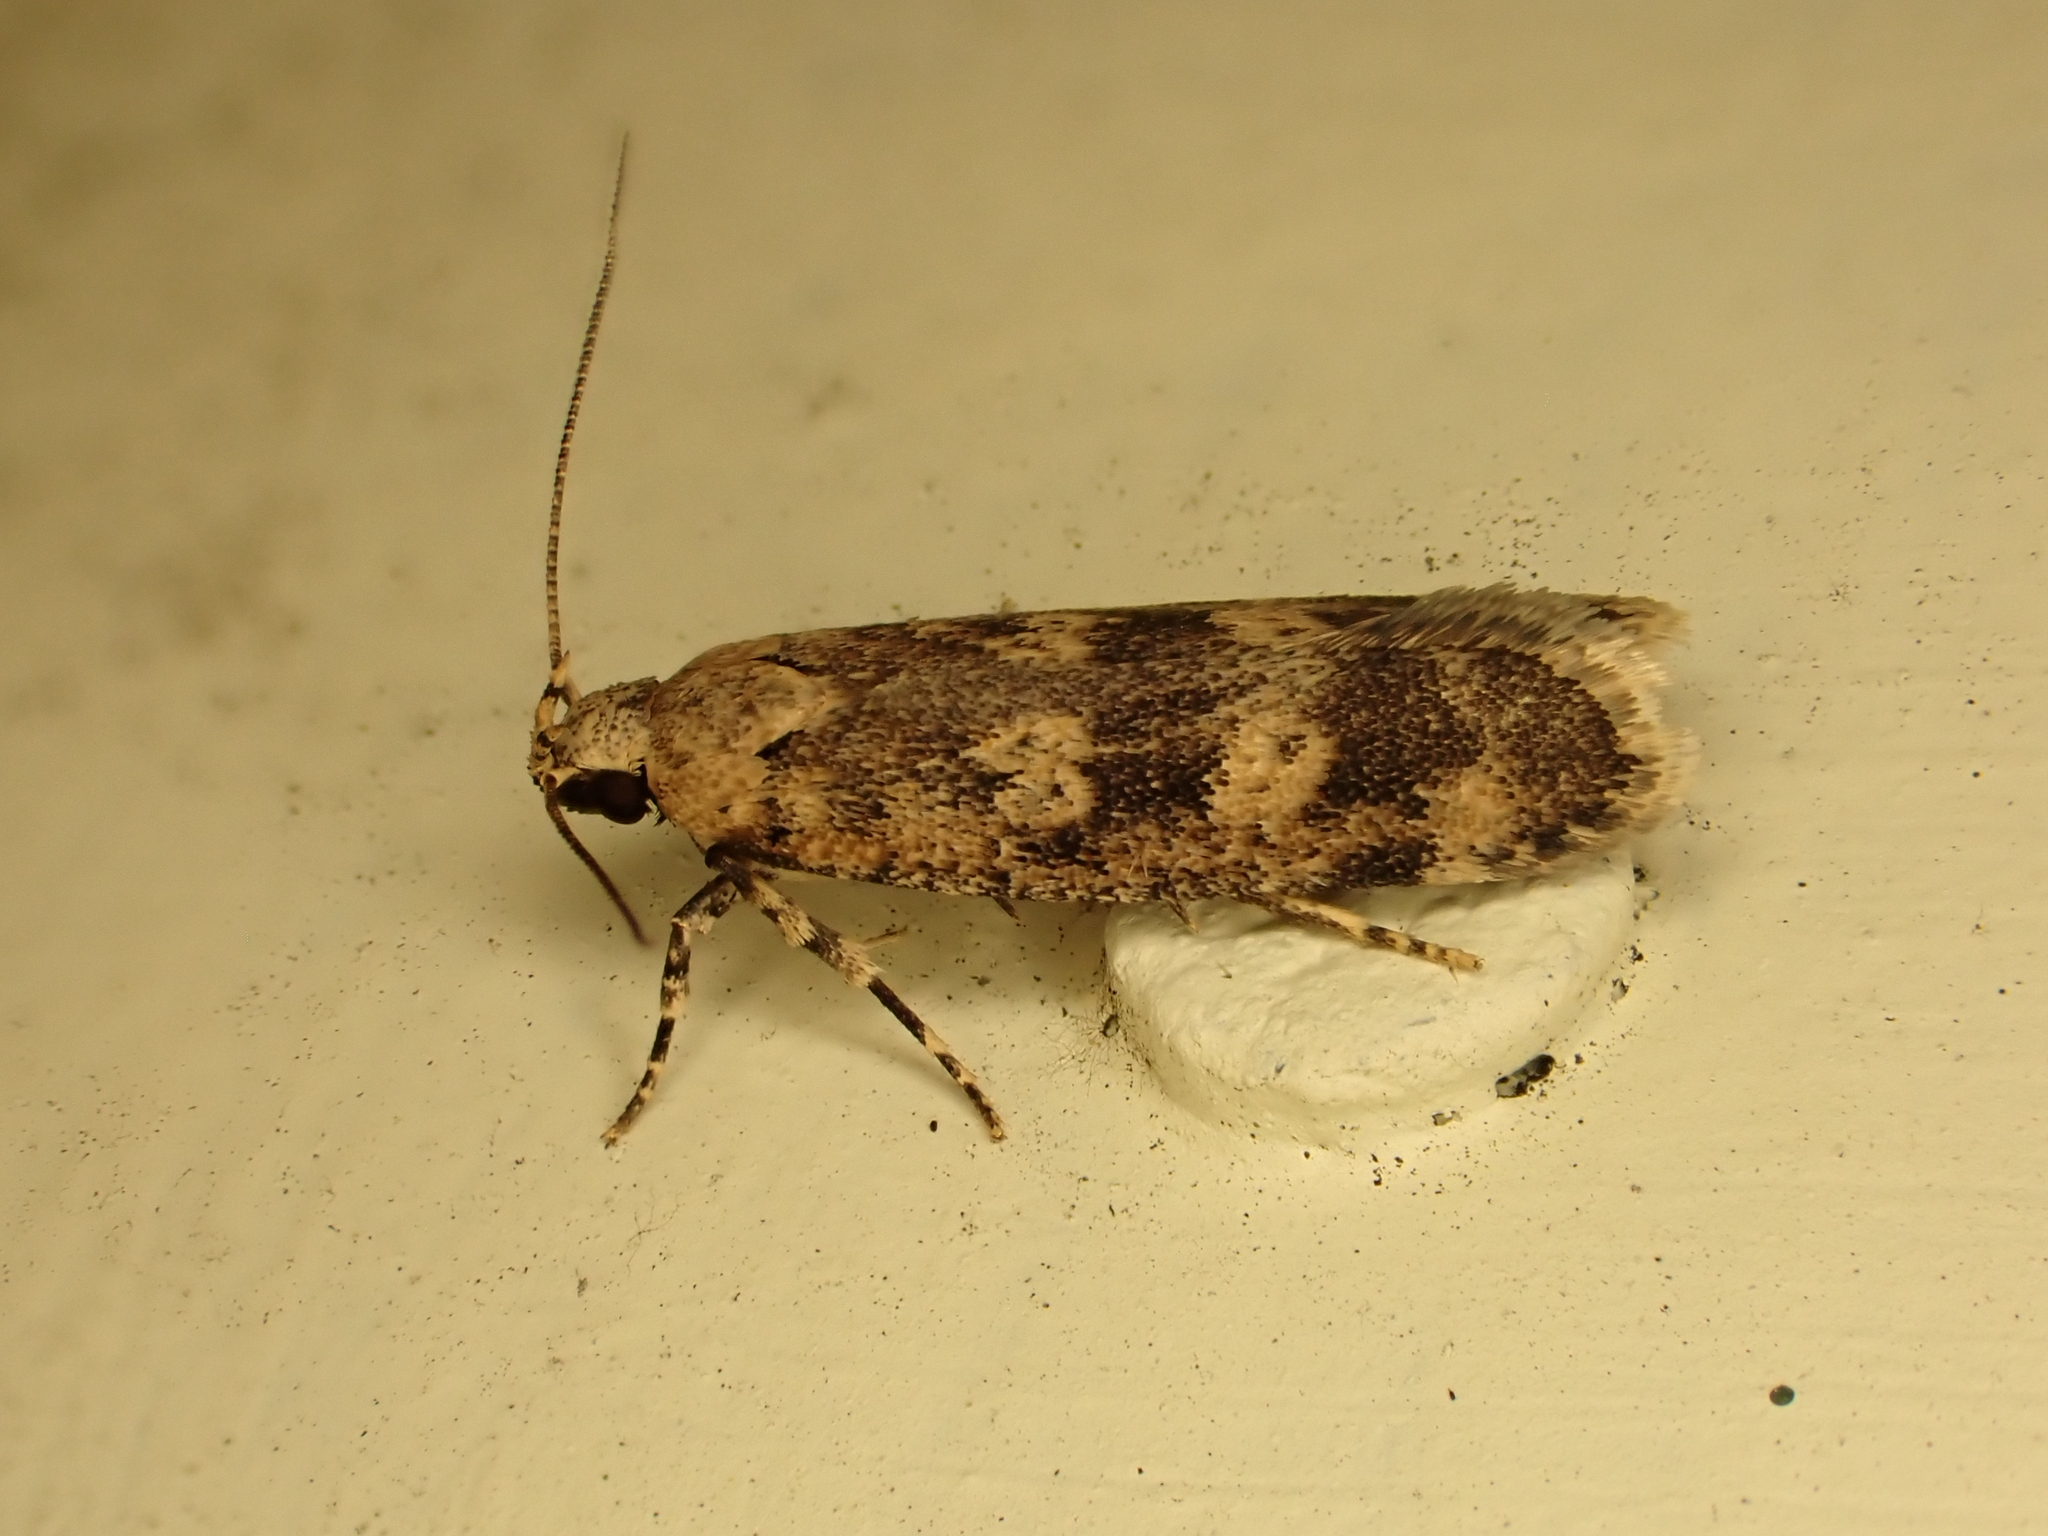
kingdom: Animalia
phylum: Arthropoda
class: Insecta
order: Lepidoptera
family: Gelechiidae
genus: Anisoplaca
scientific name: Anisoplaca cosmia
